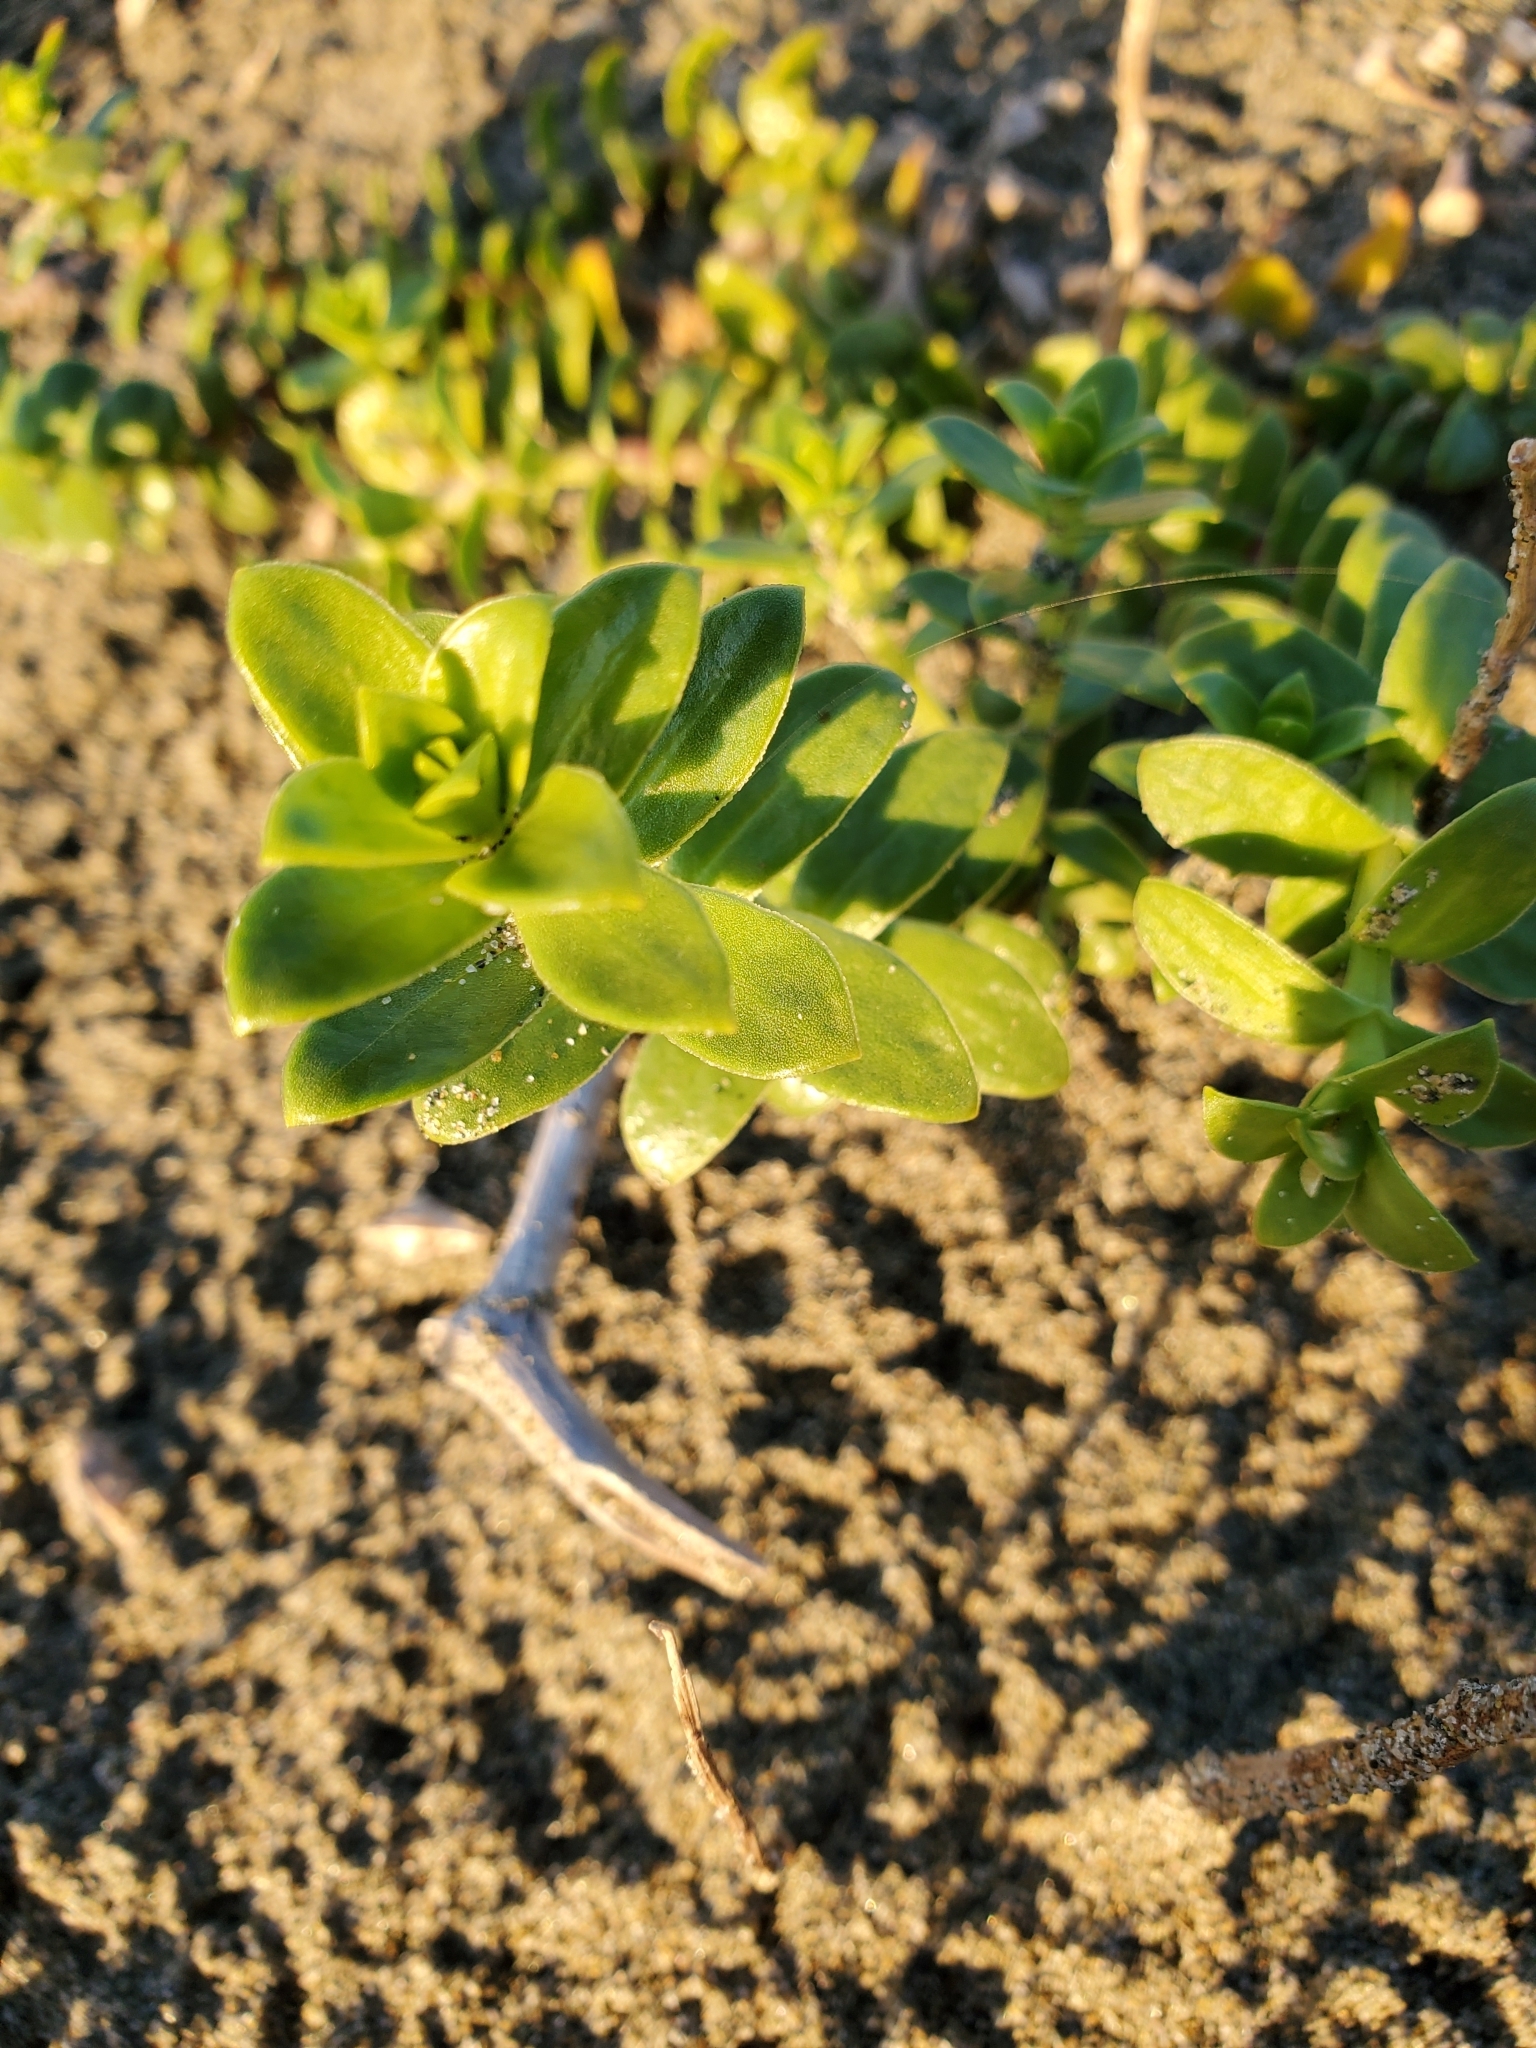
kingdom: Plantae
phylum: Tracheophyta
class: Magnoliopsida
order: Caryophyllales
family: Caryophyllaceae
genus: Honckenya
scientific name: Honckenya peploides
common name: Sea sandwort
